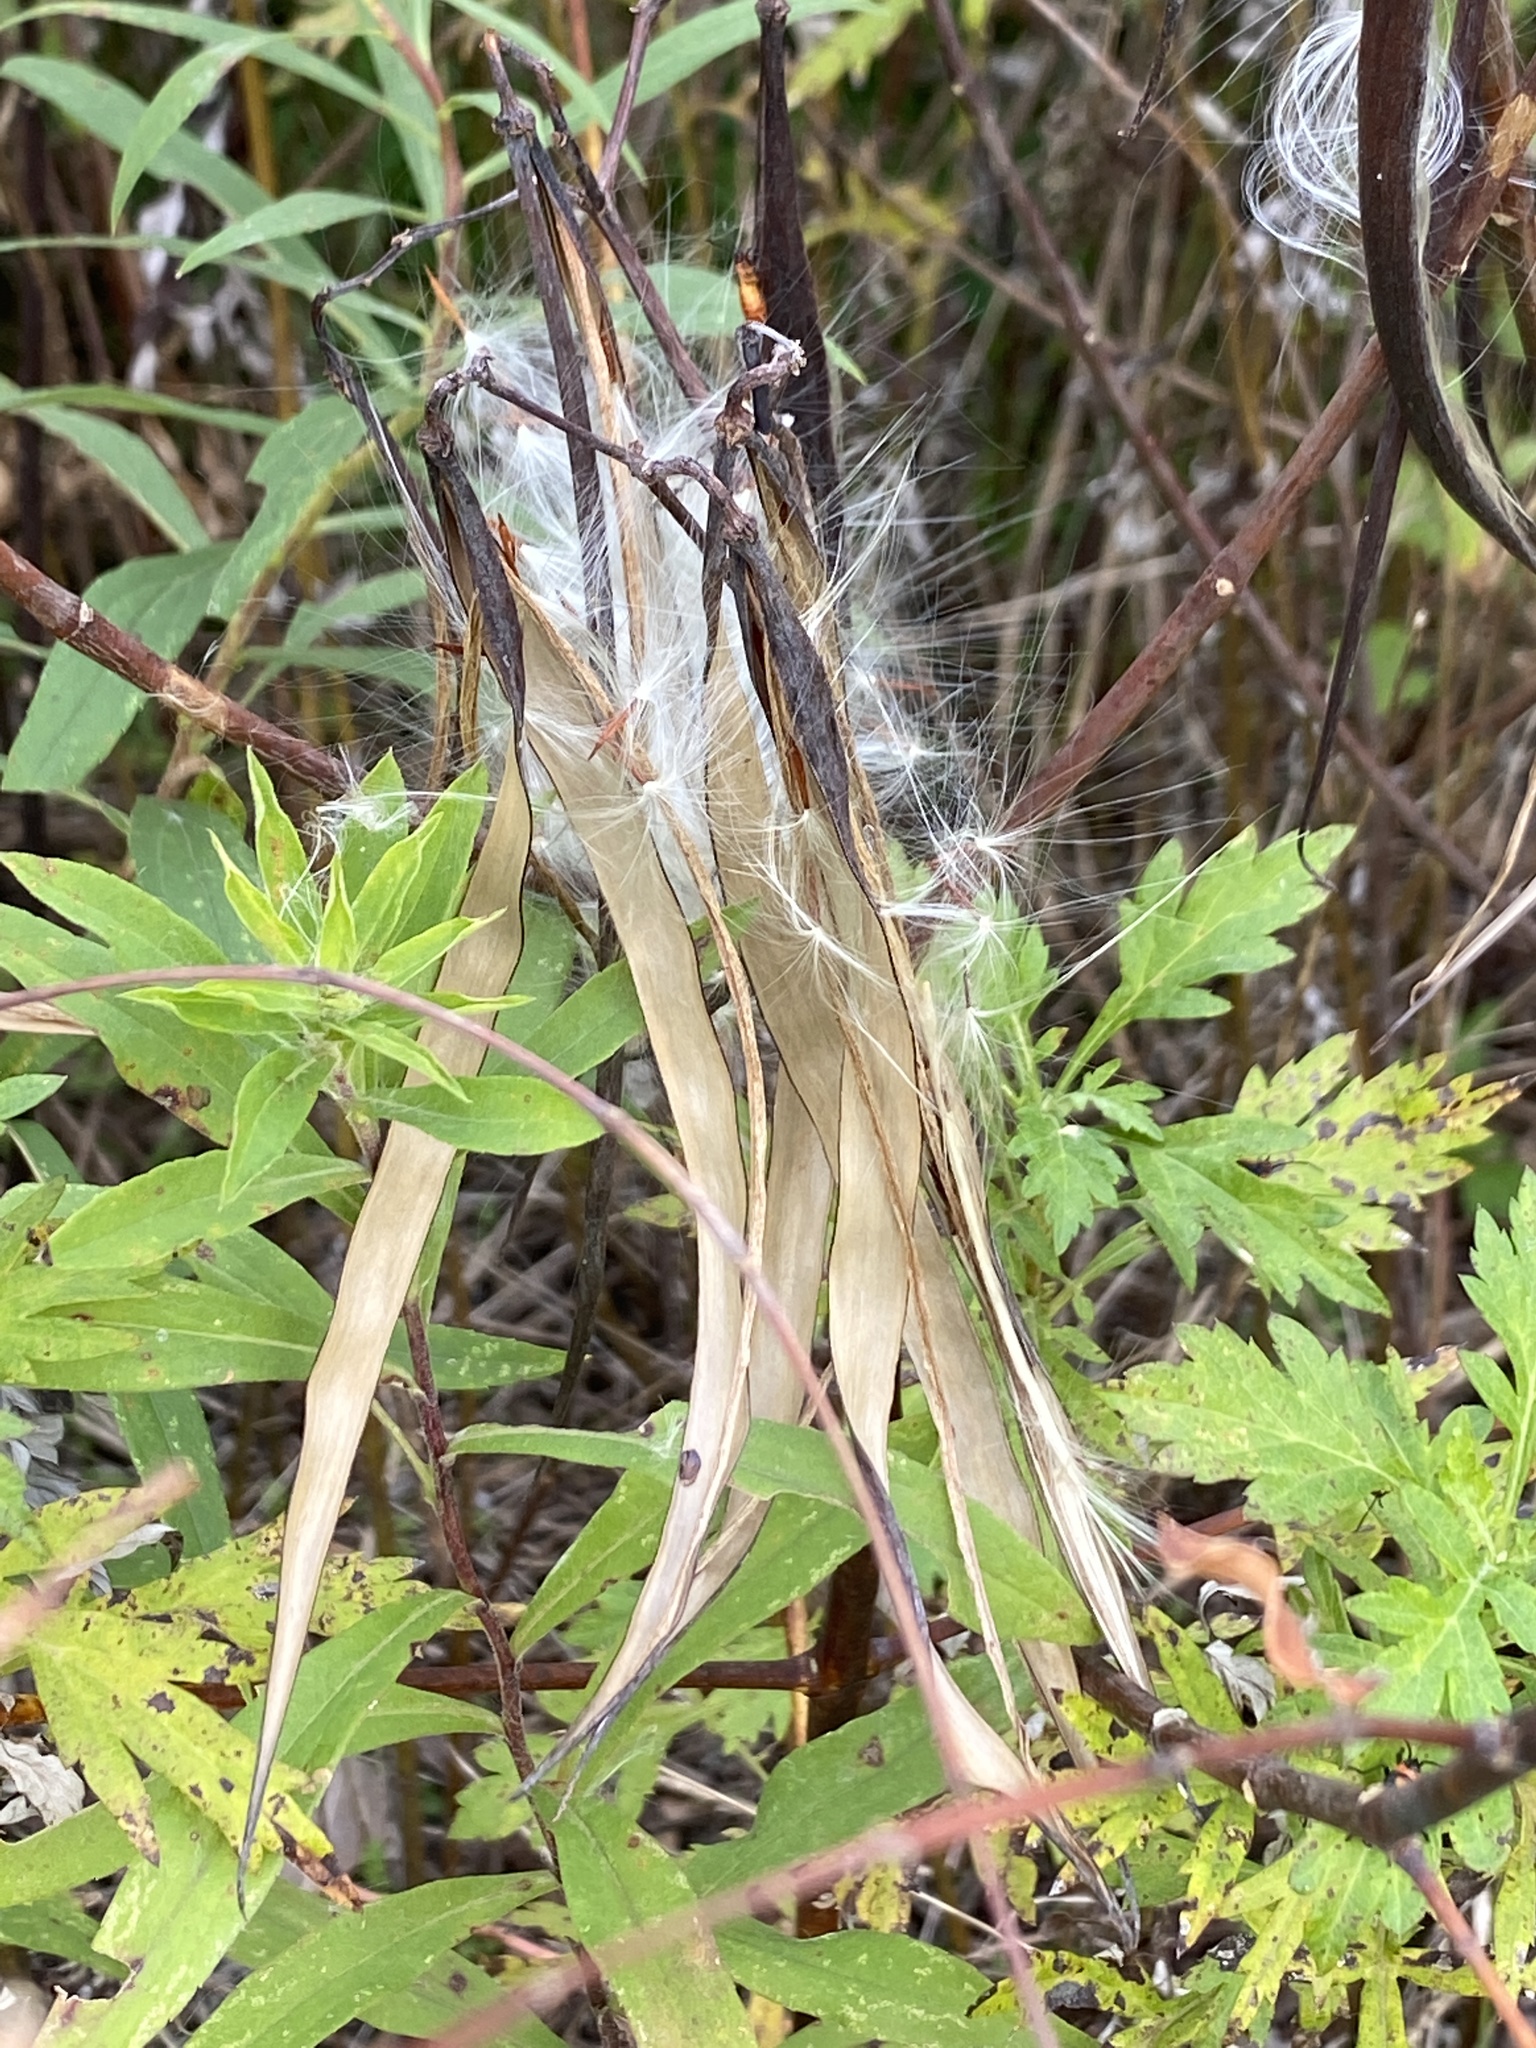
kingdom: Plantae
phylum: Tracheophyta
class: Magnoliopsida
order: Gentianales
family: Apocynaceae
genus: Apocynum
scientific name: Apocynum cannabinum
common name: Hemp dogbane
